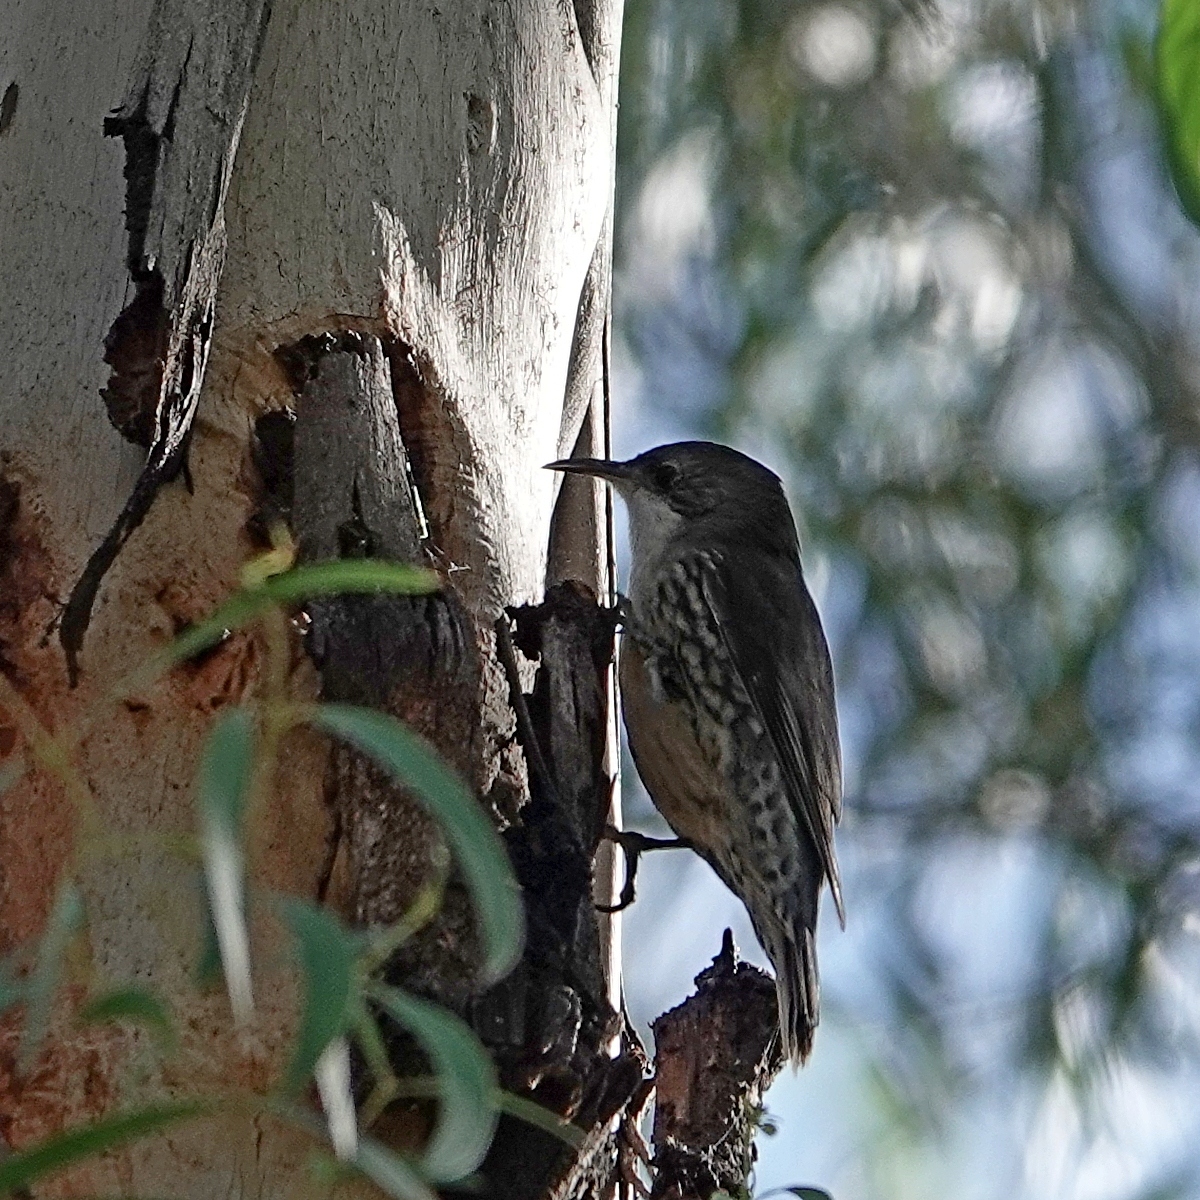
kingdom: Animalia
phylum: Chordata
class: Aves
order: Passeriformes
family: Climacteridae
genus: Cormobates
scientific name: Cormobates leucophaea
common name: White-throated treecreeper
